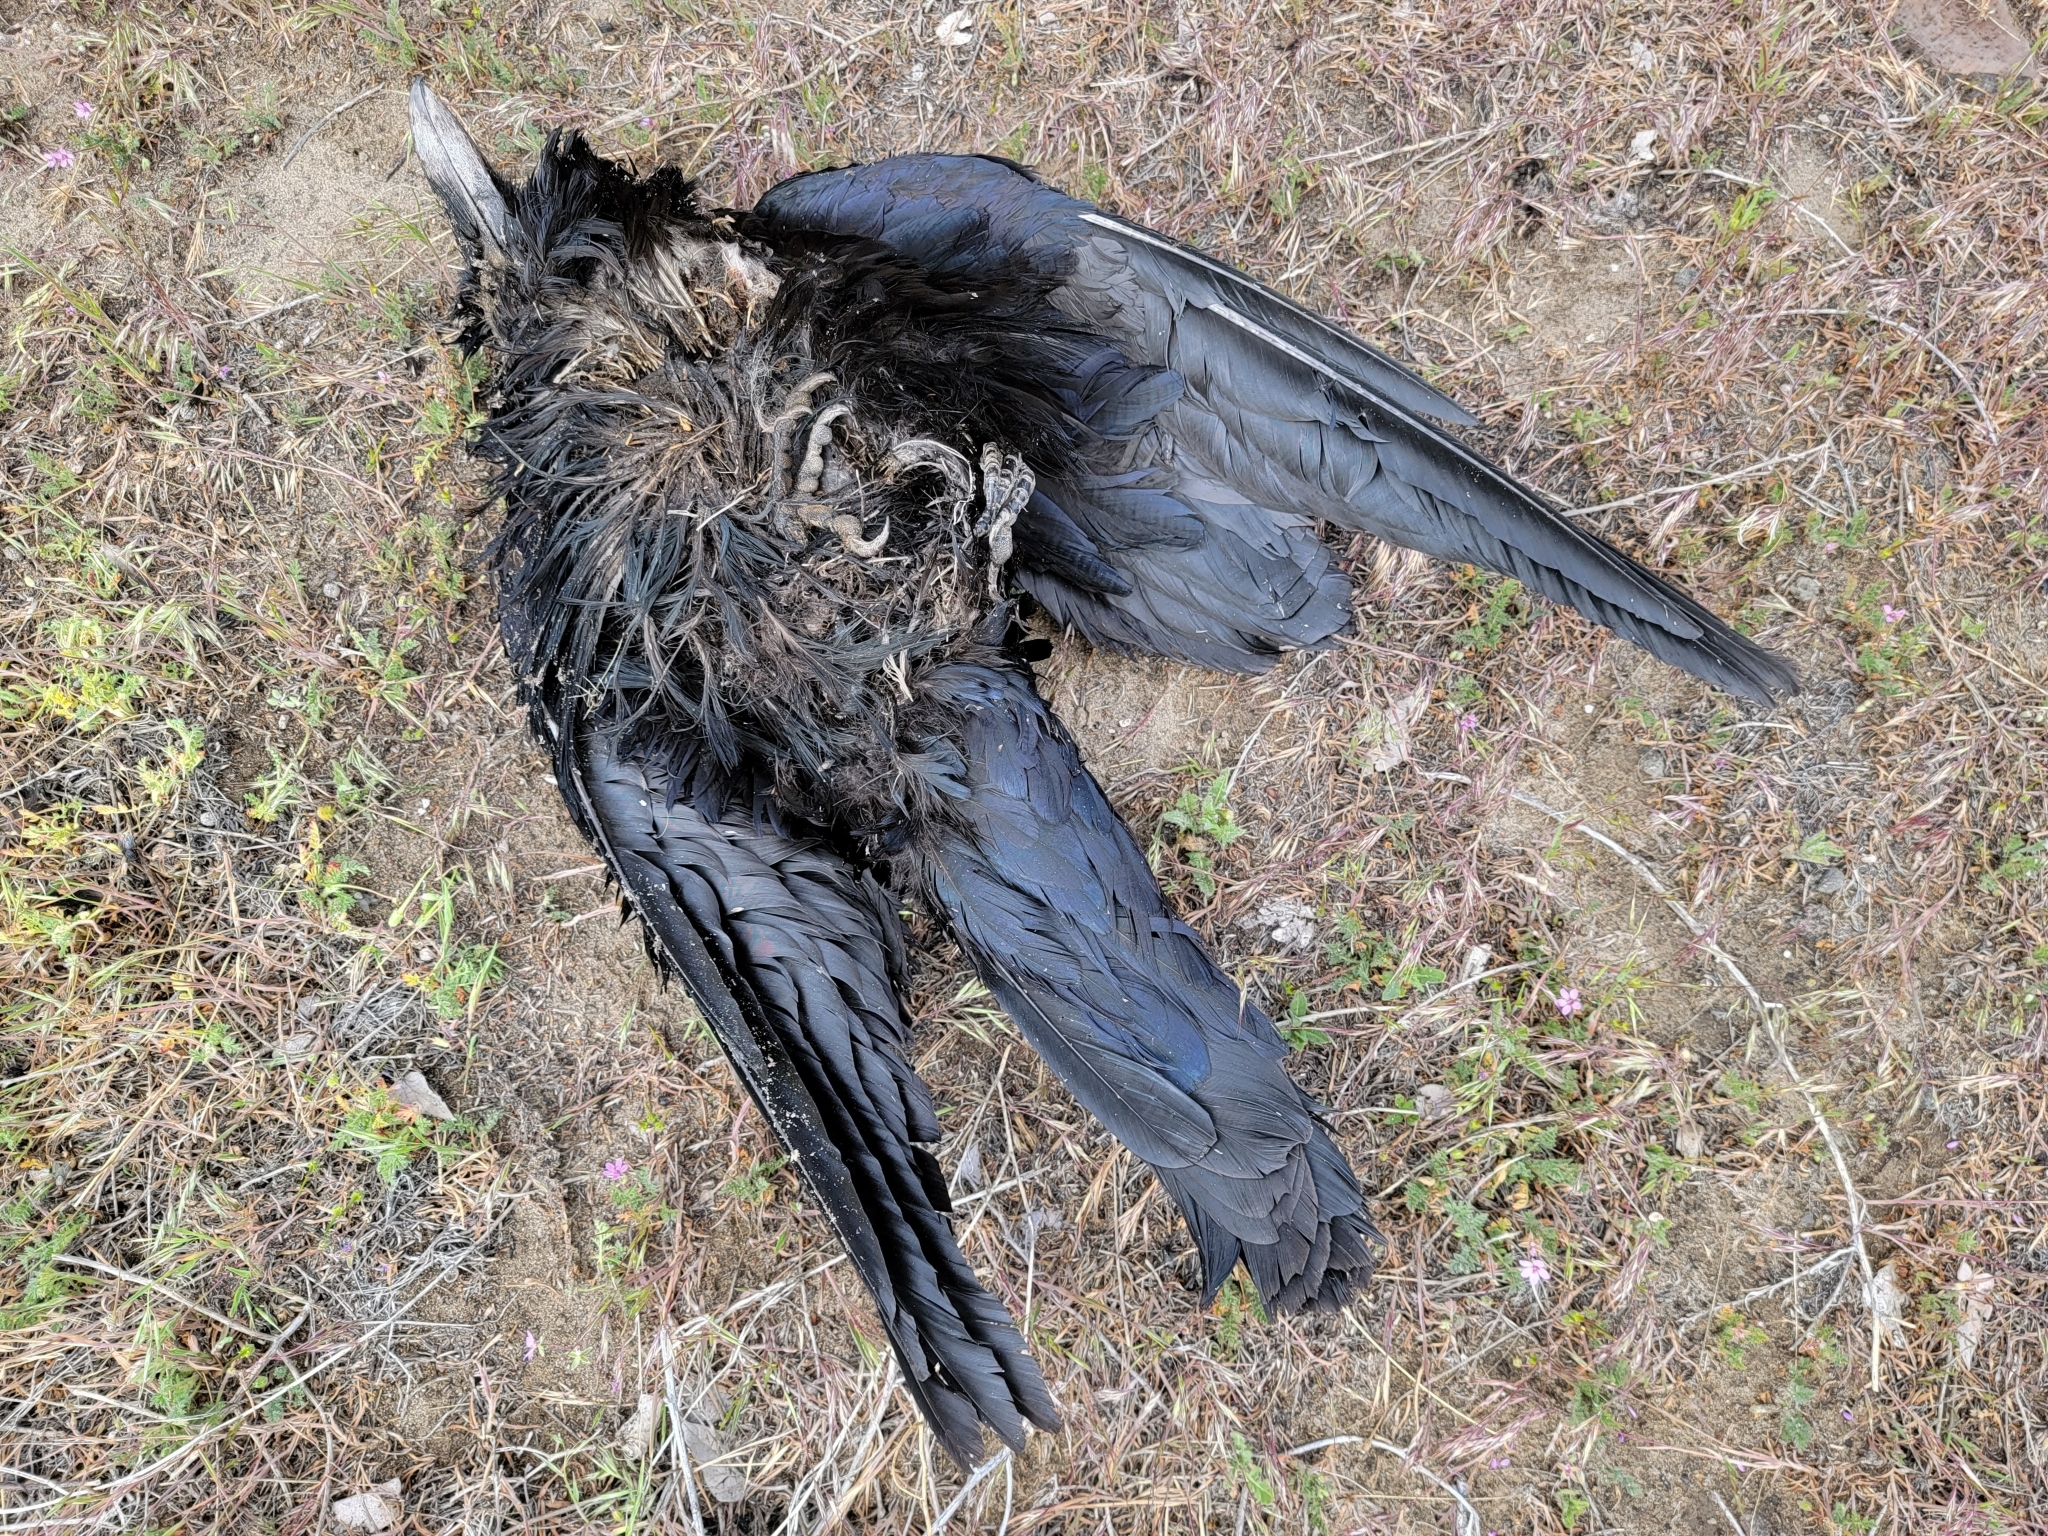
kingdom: Animalia
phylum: Chordata
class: Aves
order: Passeriformes
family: Corvidae
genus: Corvus
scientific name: Corvus corax
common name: Common raven
